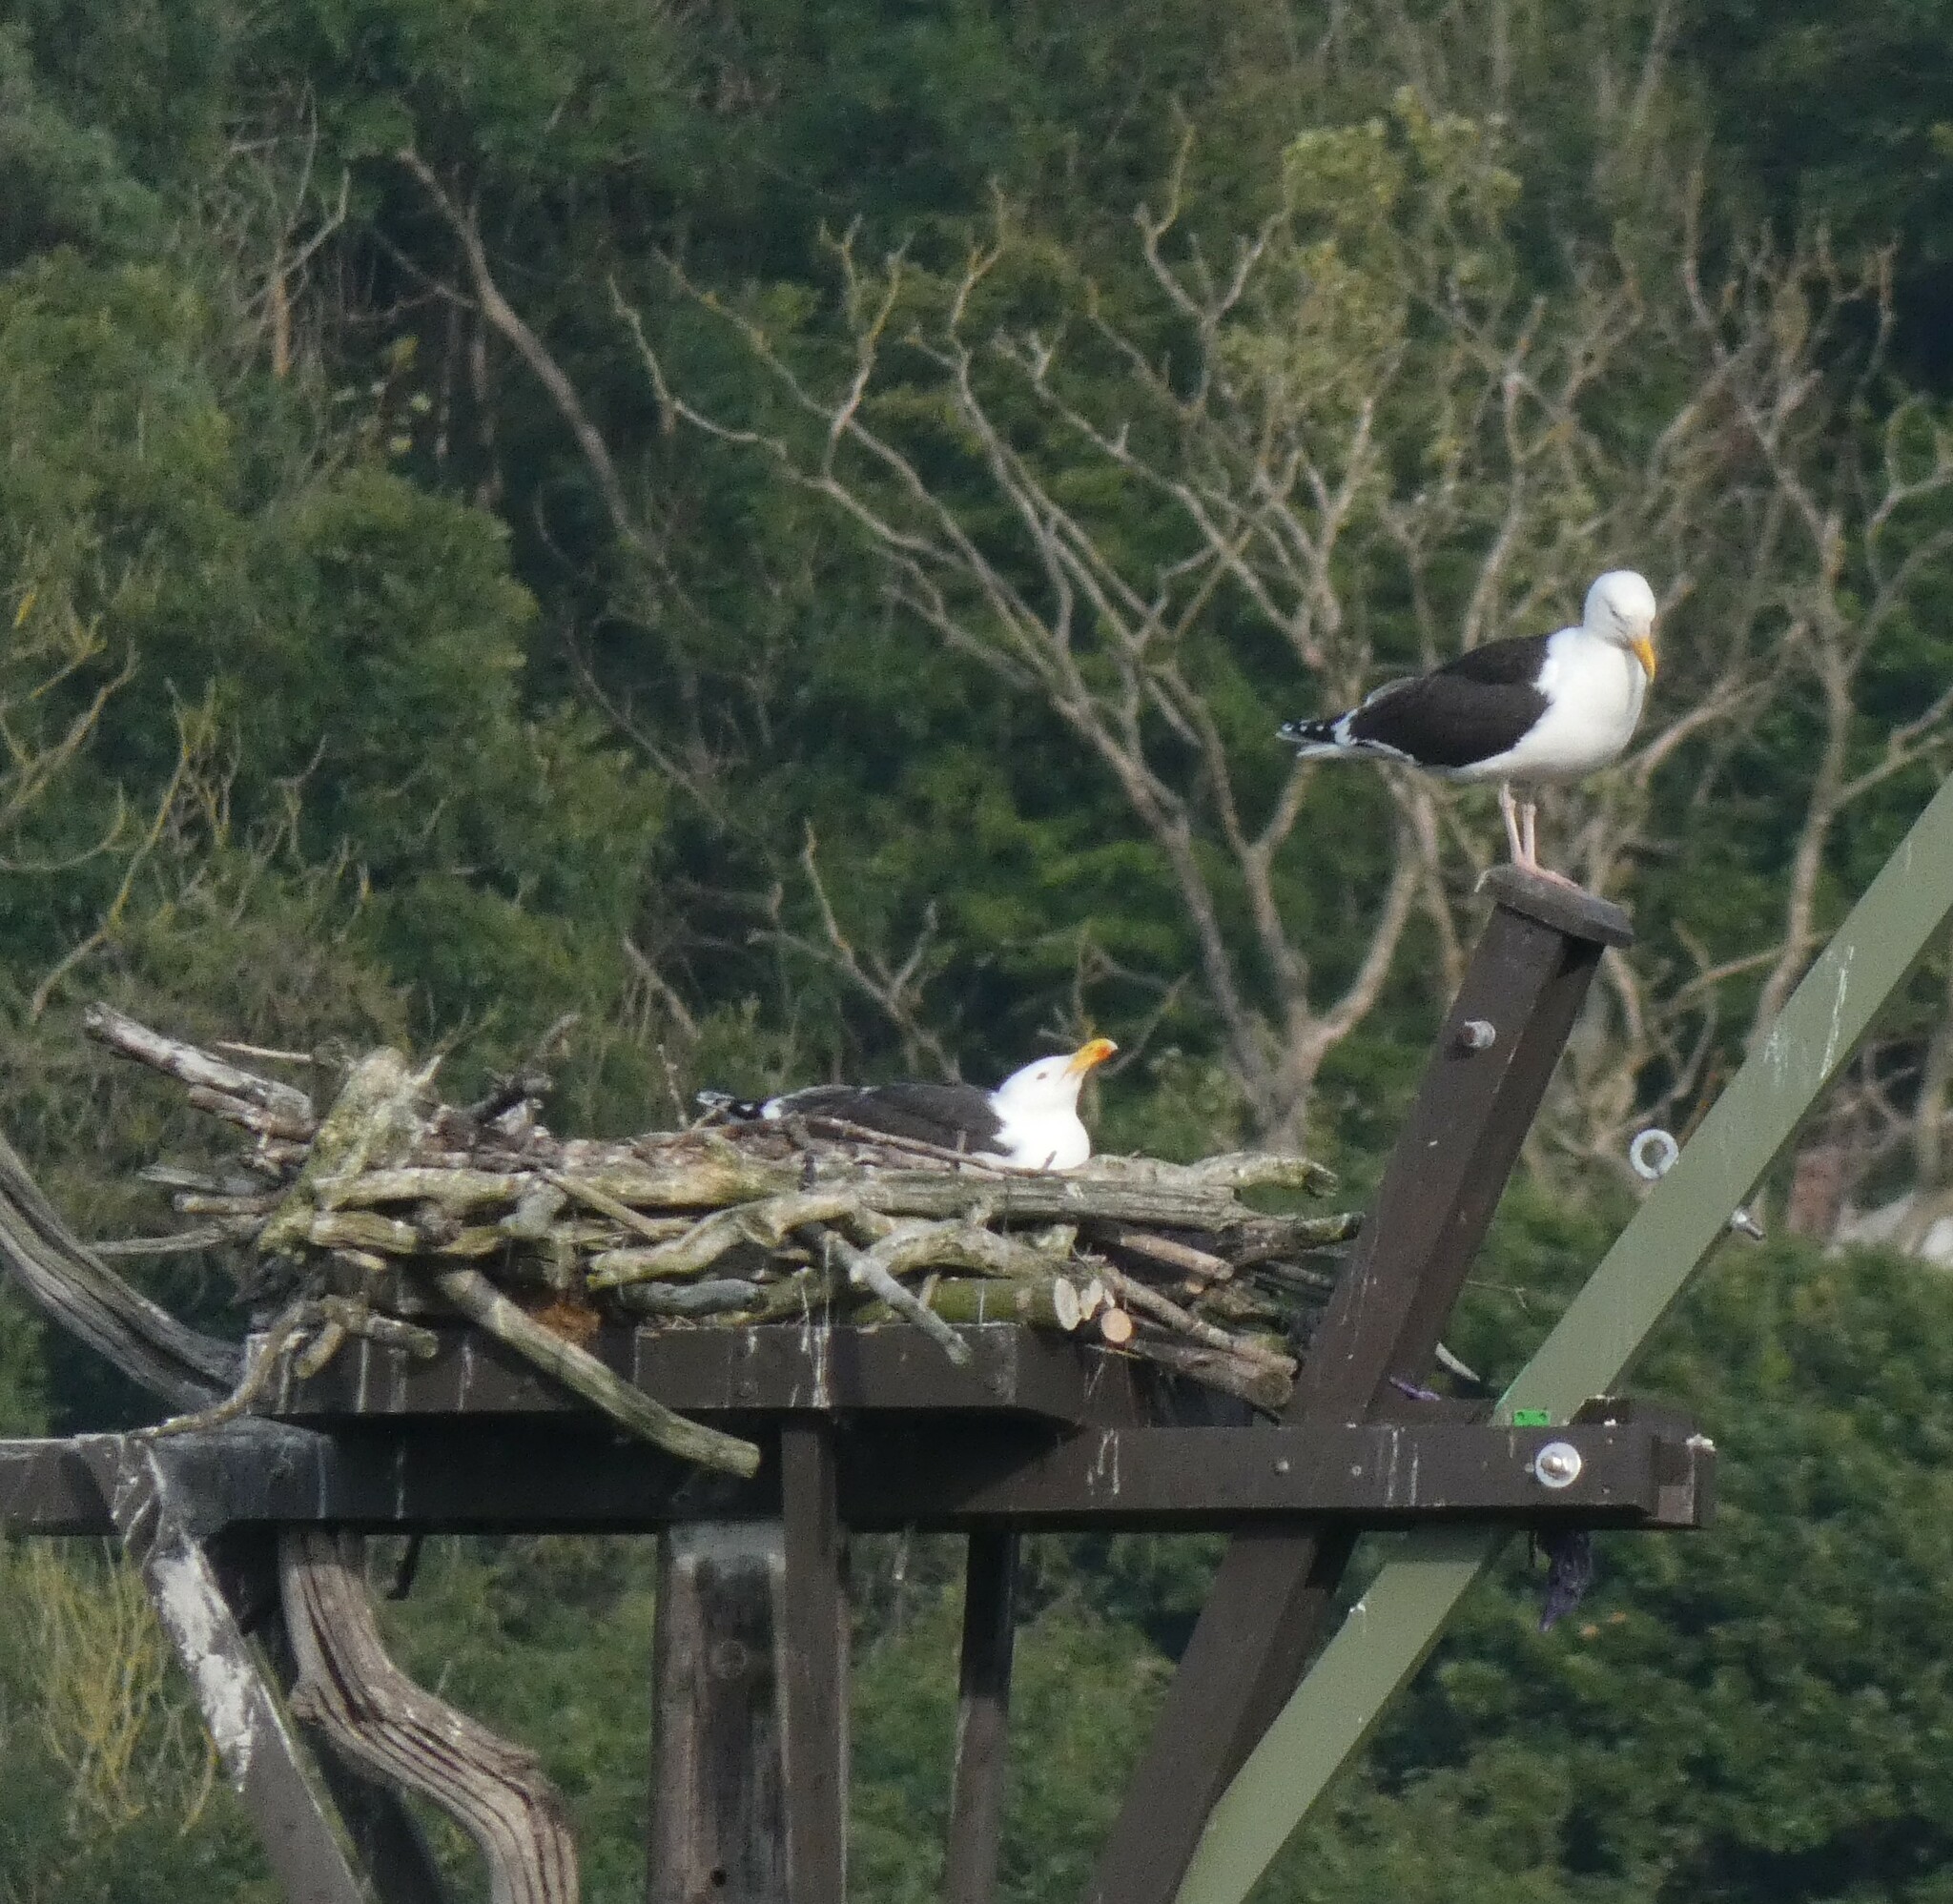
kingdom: Animalia
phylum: Chordata
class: Aves
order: Charadriiformes
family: Laridae
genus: Larus
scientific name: Larus marinus
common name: Great black-backed gull
